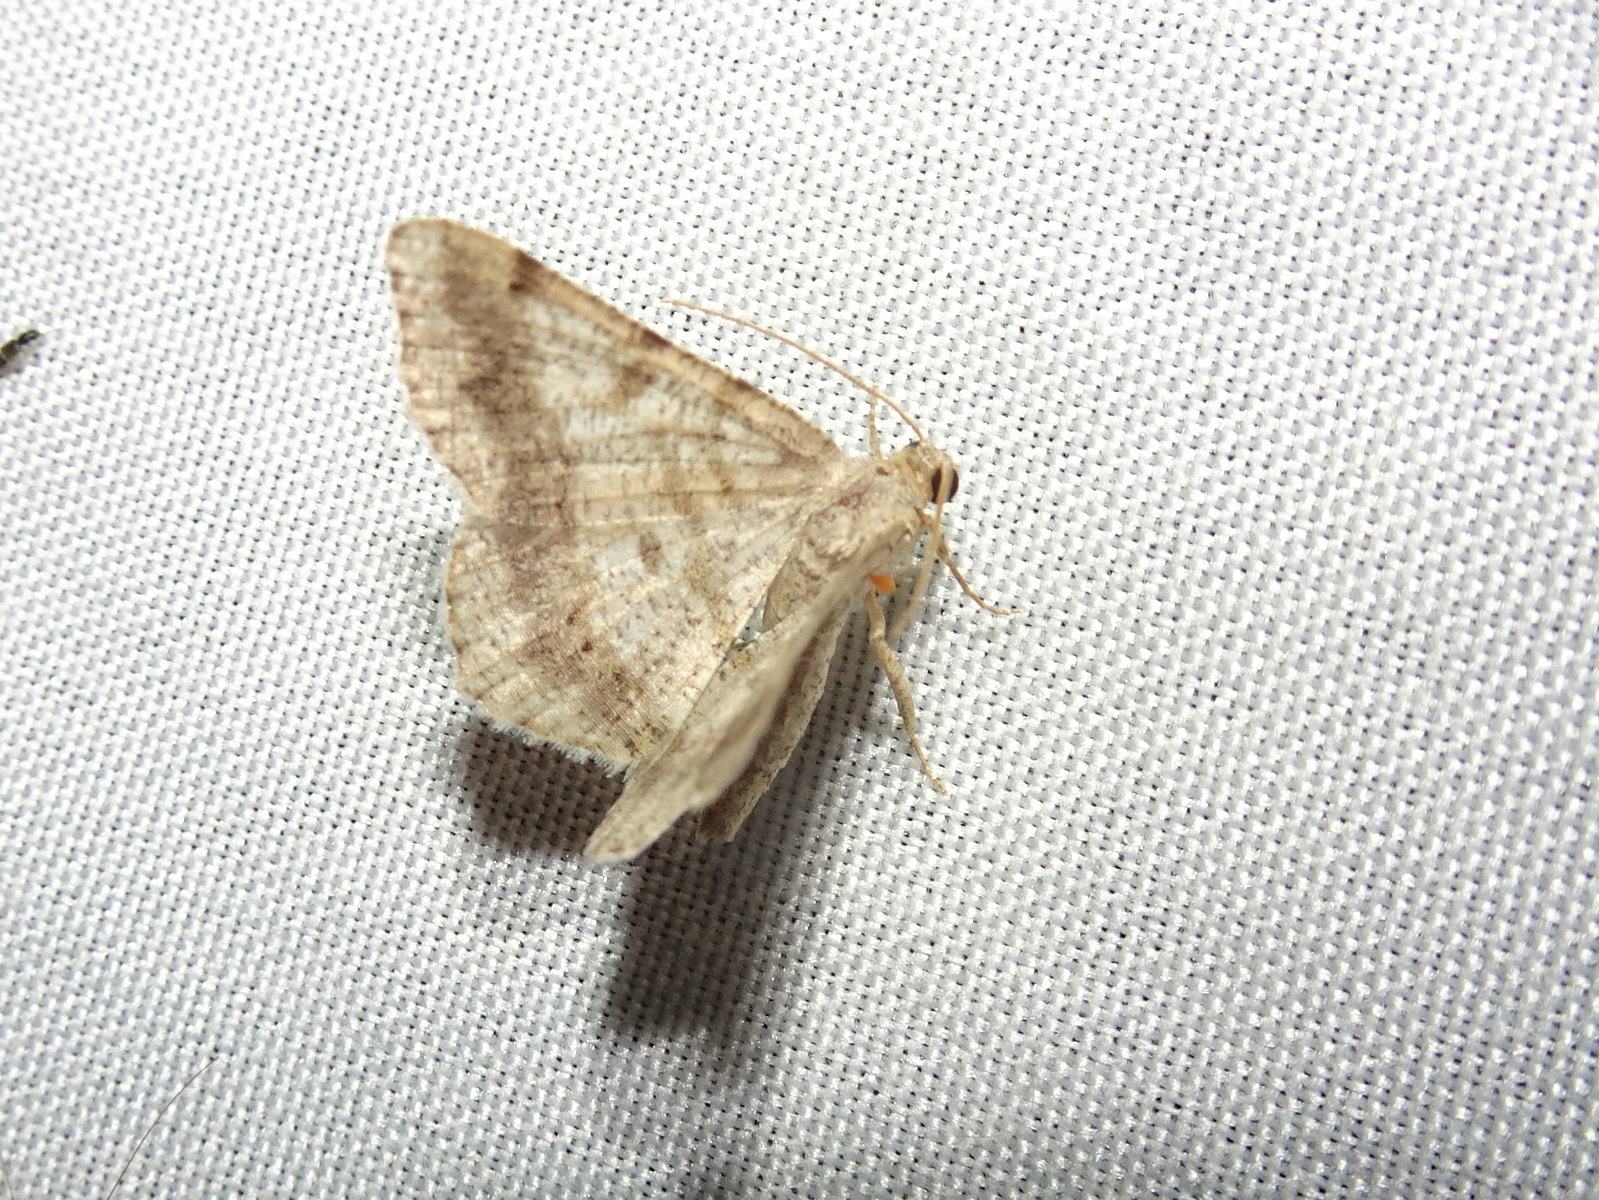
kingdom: Animalia
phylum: Arthropoda
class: Insecta
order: Lepidoptera
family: Geometridae
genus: Digrammia
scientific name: Digrammia ocellinata
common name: Faint-spotted angle
